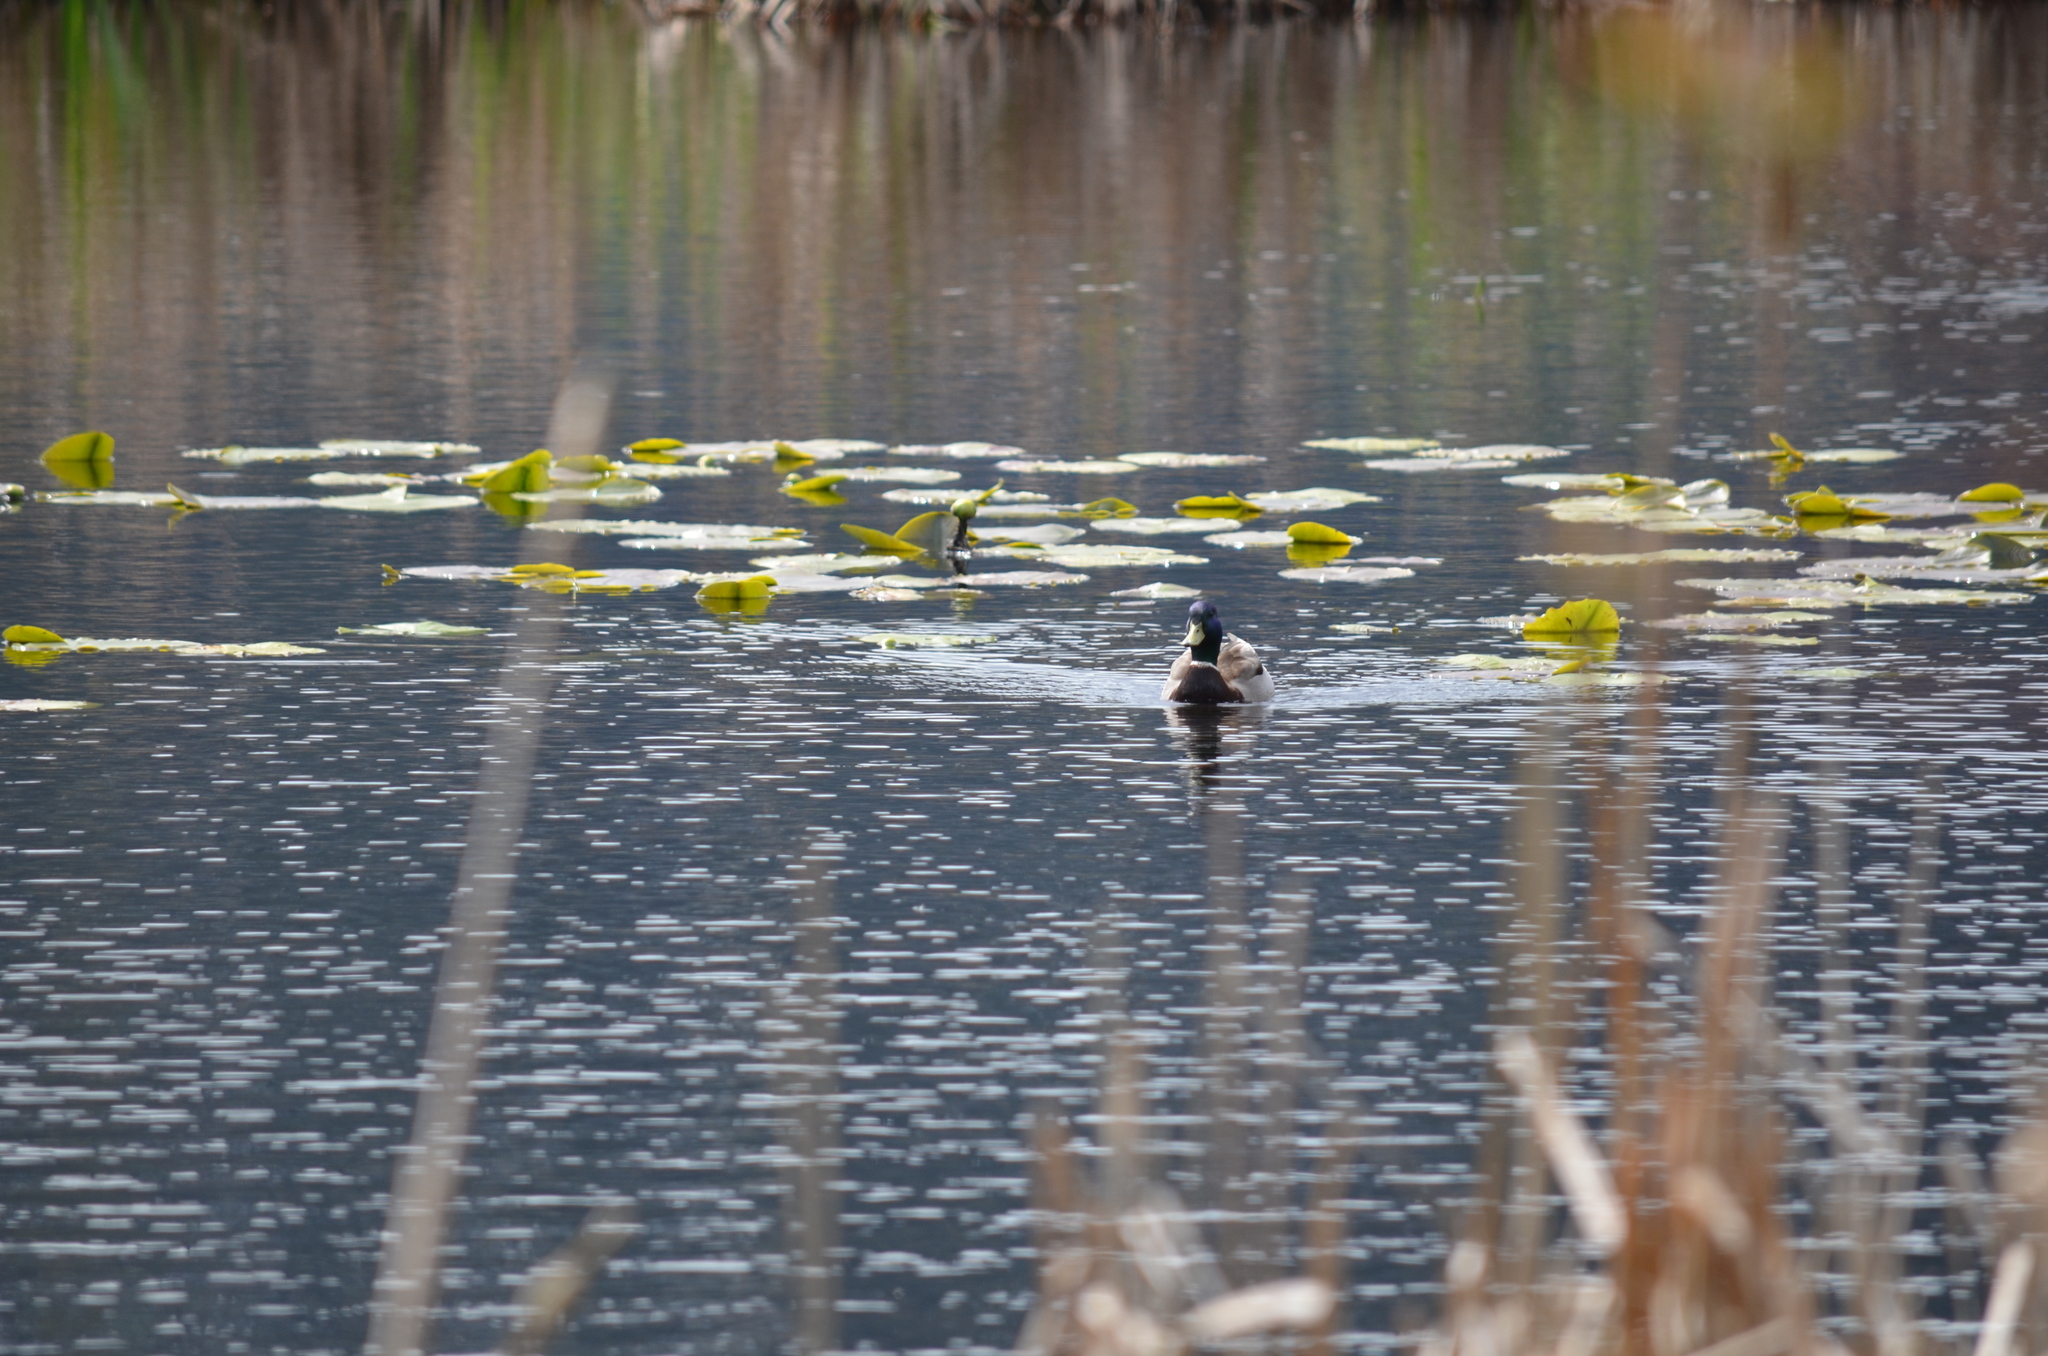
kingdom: Animalia
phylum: Chordata
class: Aves
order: Anseriformes
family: Anatidae
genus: Anas
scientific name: Anas platyrhynchos
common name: Mallard
